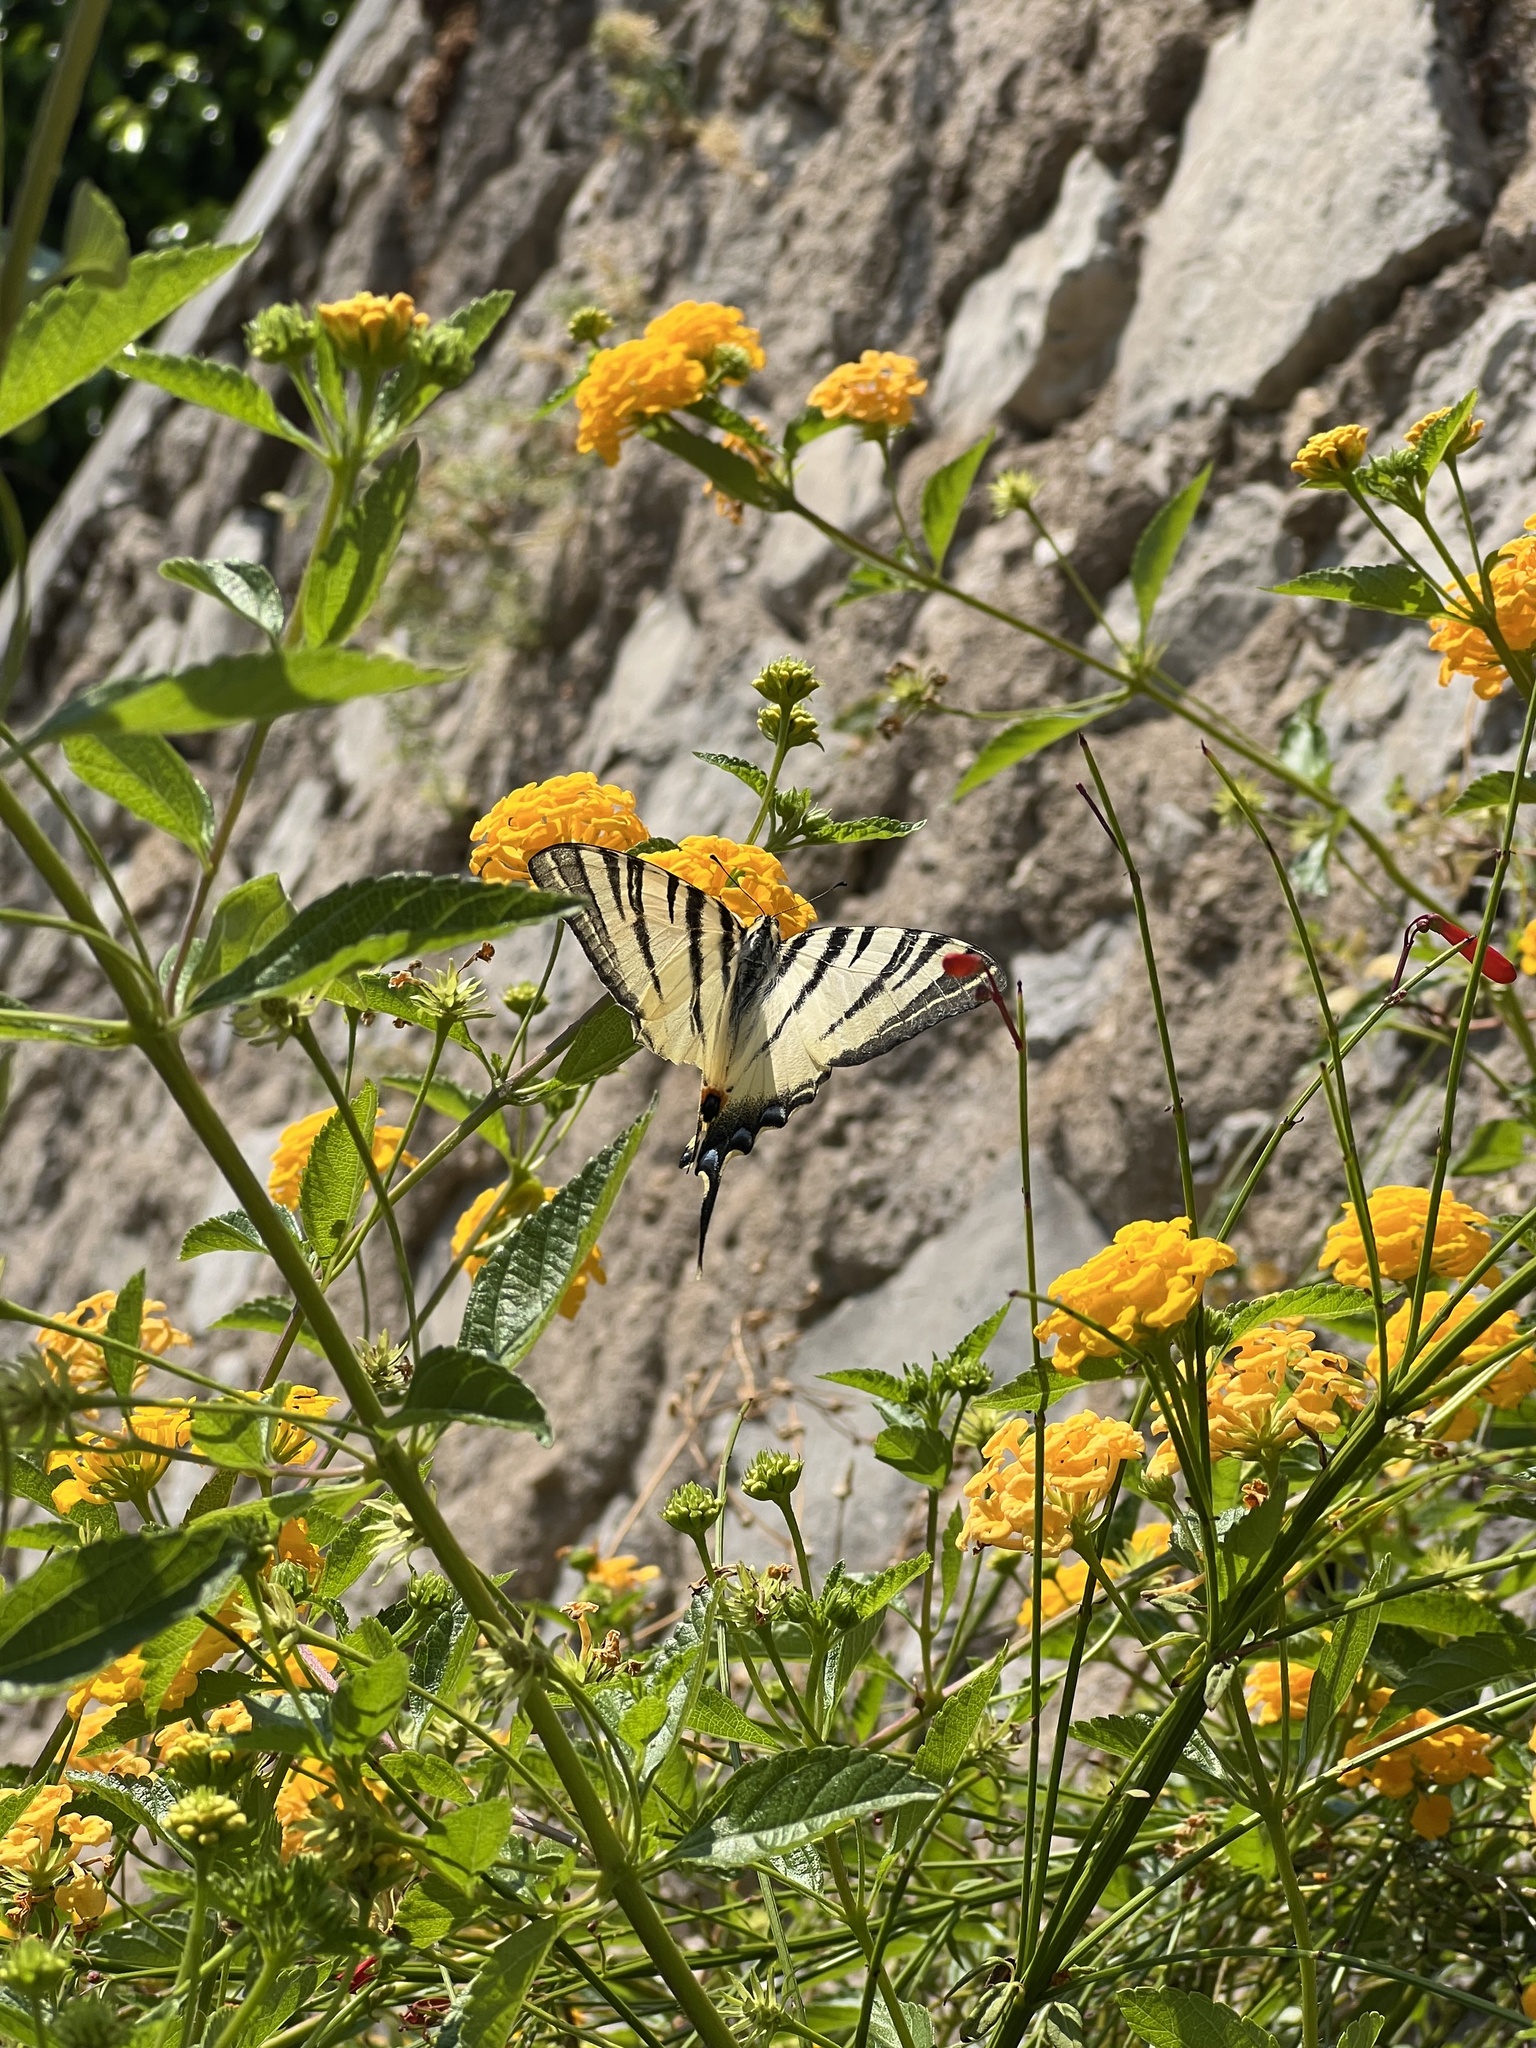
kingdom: Animalia
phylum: Arthropoda
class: Insecta
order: Lepidoptera
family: Papilionidae
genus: Iphiclides
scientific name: Iphiclides podalirius
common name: Scarce swallowtail
